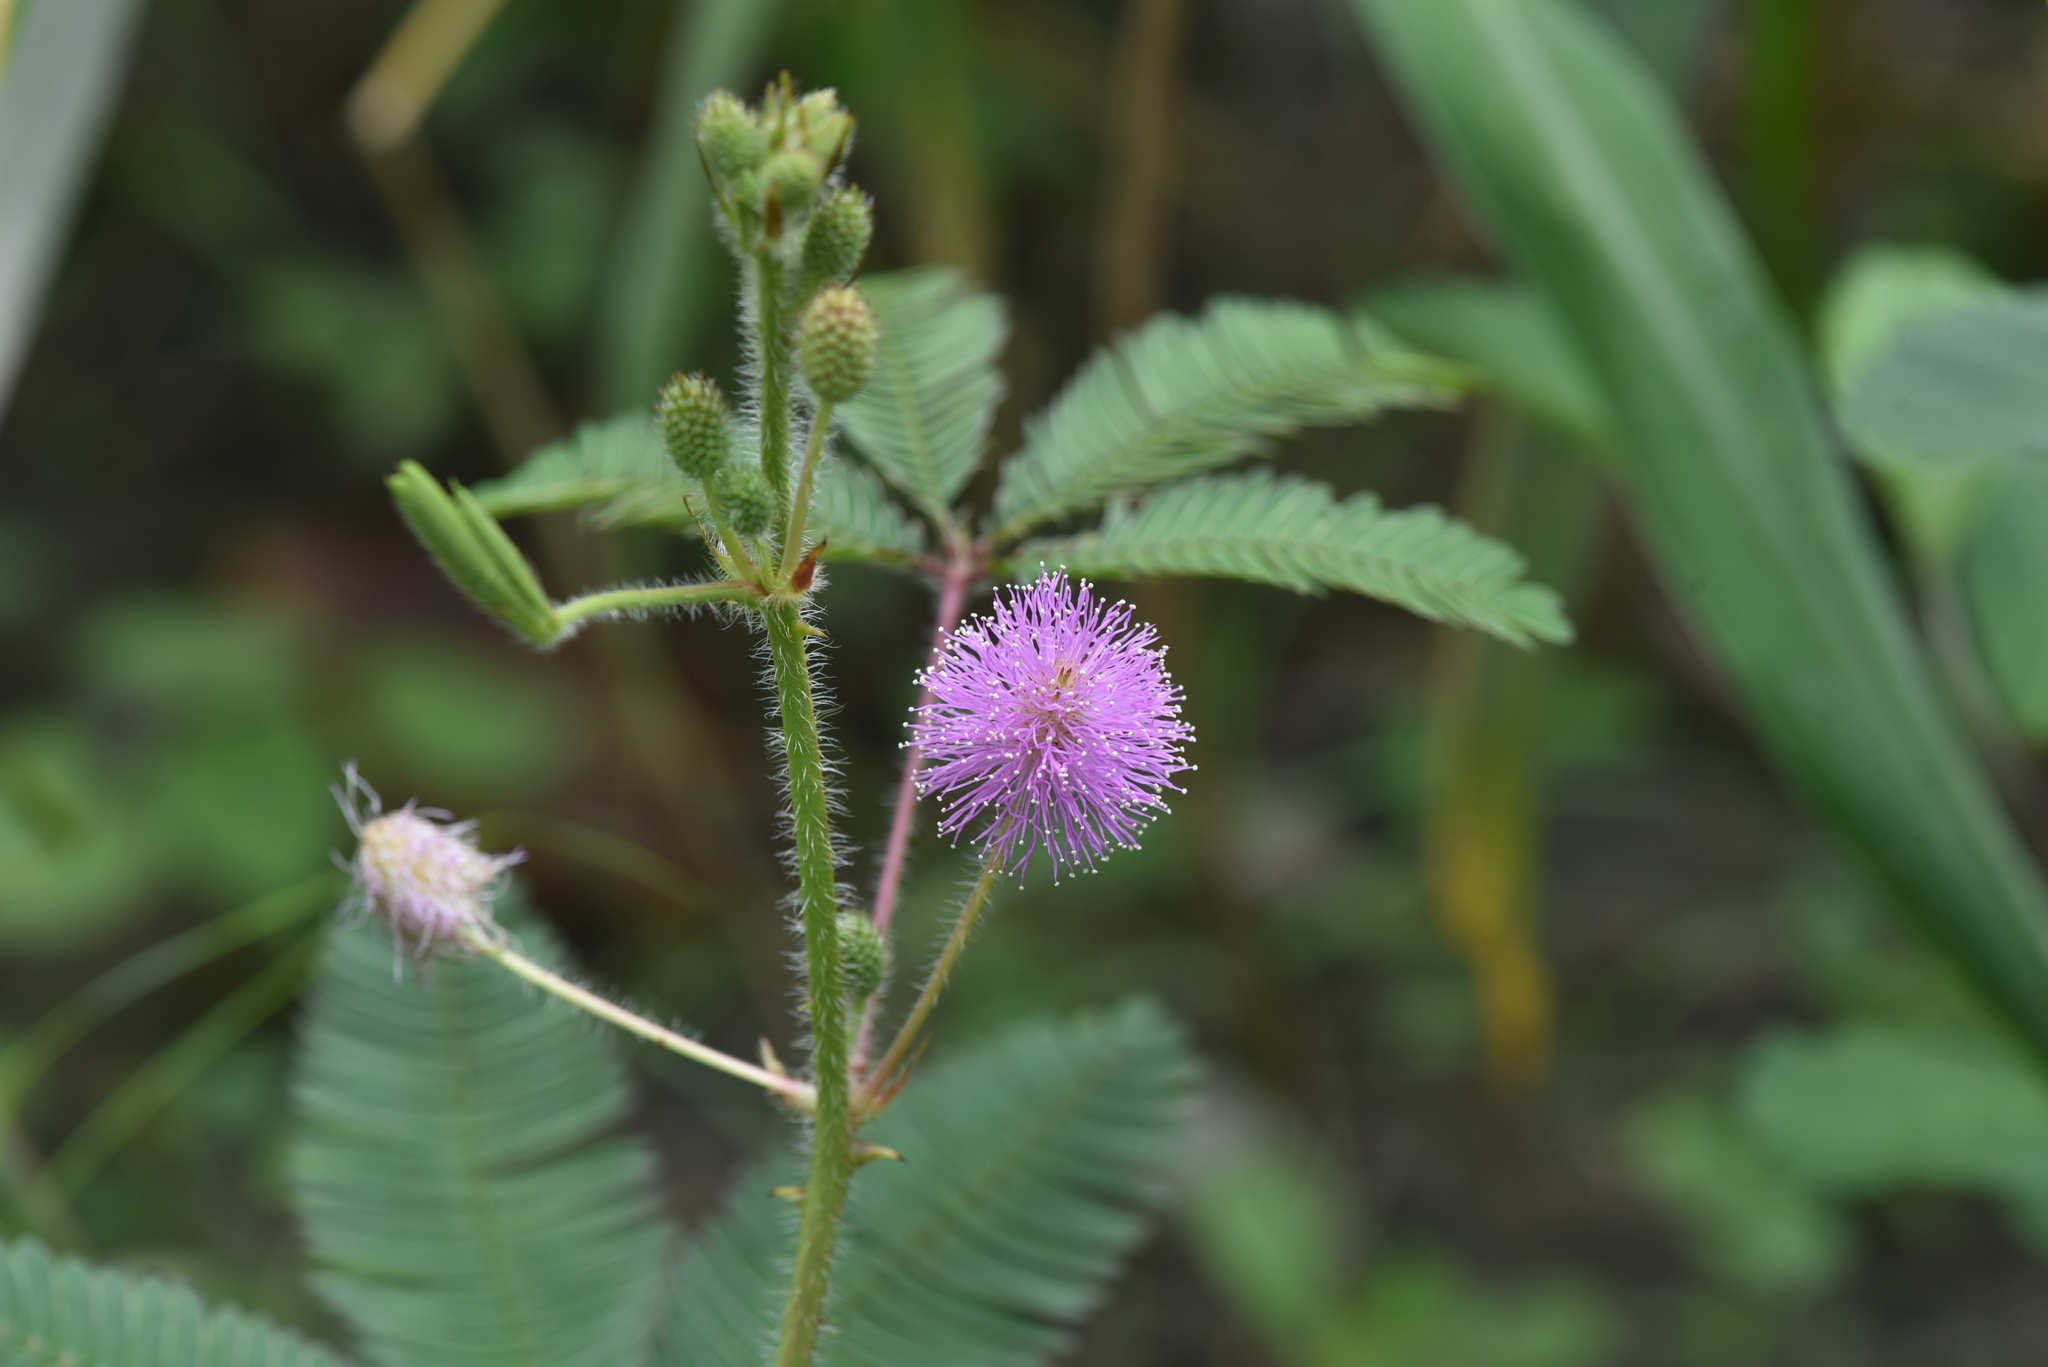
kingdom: Plantae
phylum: Tracheophyta
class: Magnoliopsida
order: Fabales
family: Fabaceae
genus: Mimosa
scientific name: Mimosa pudica
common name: Sensitive plant
